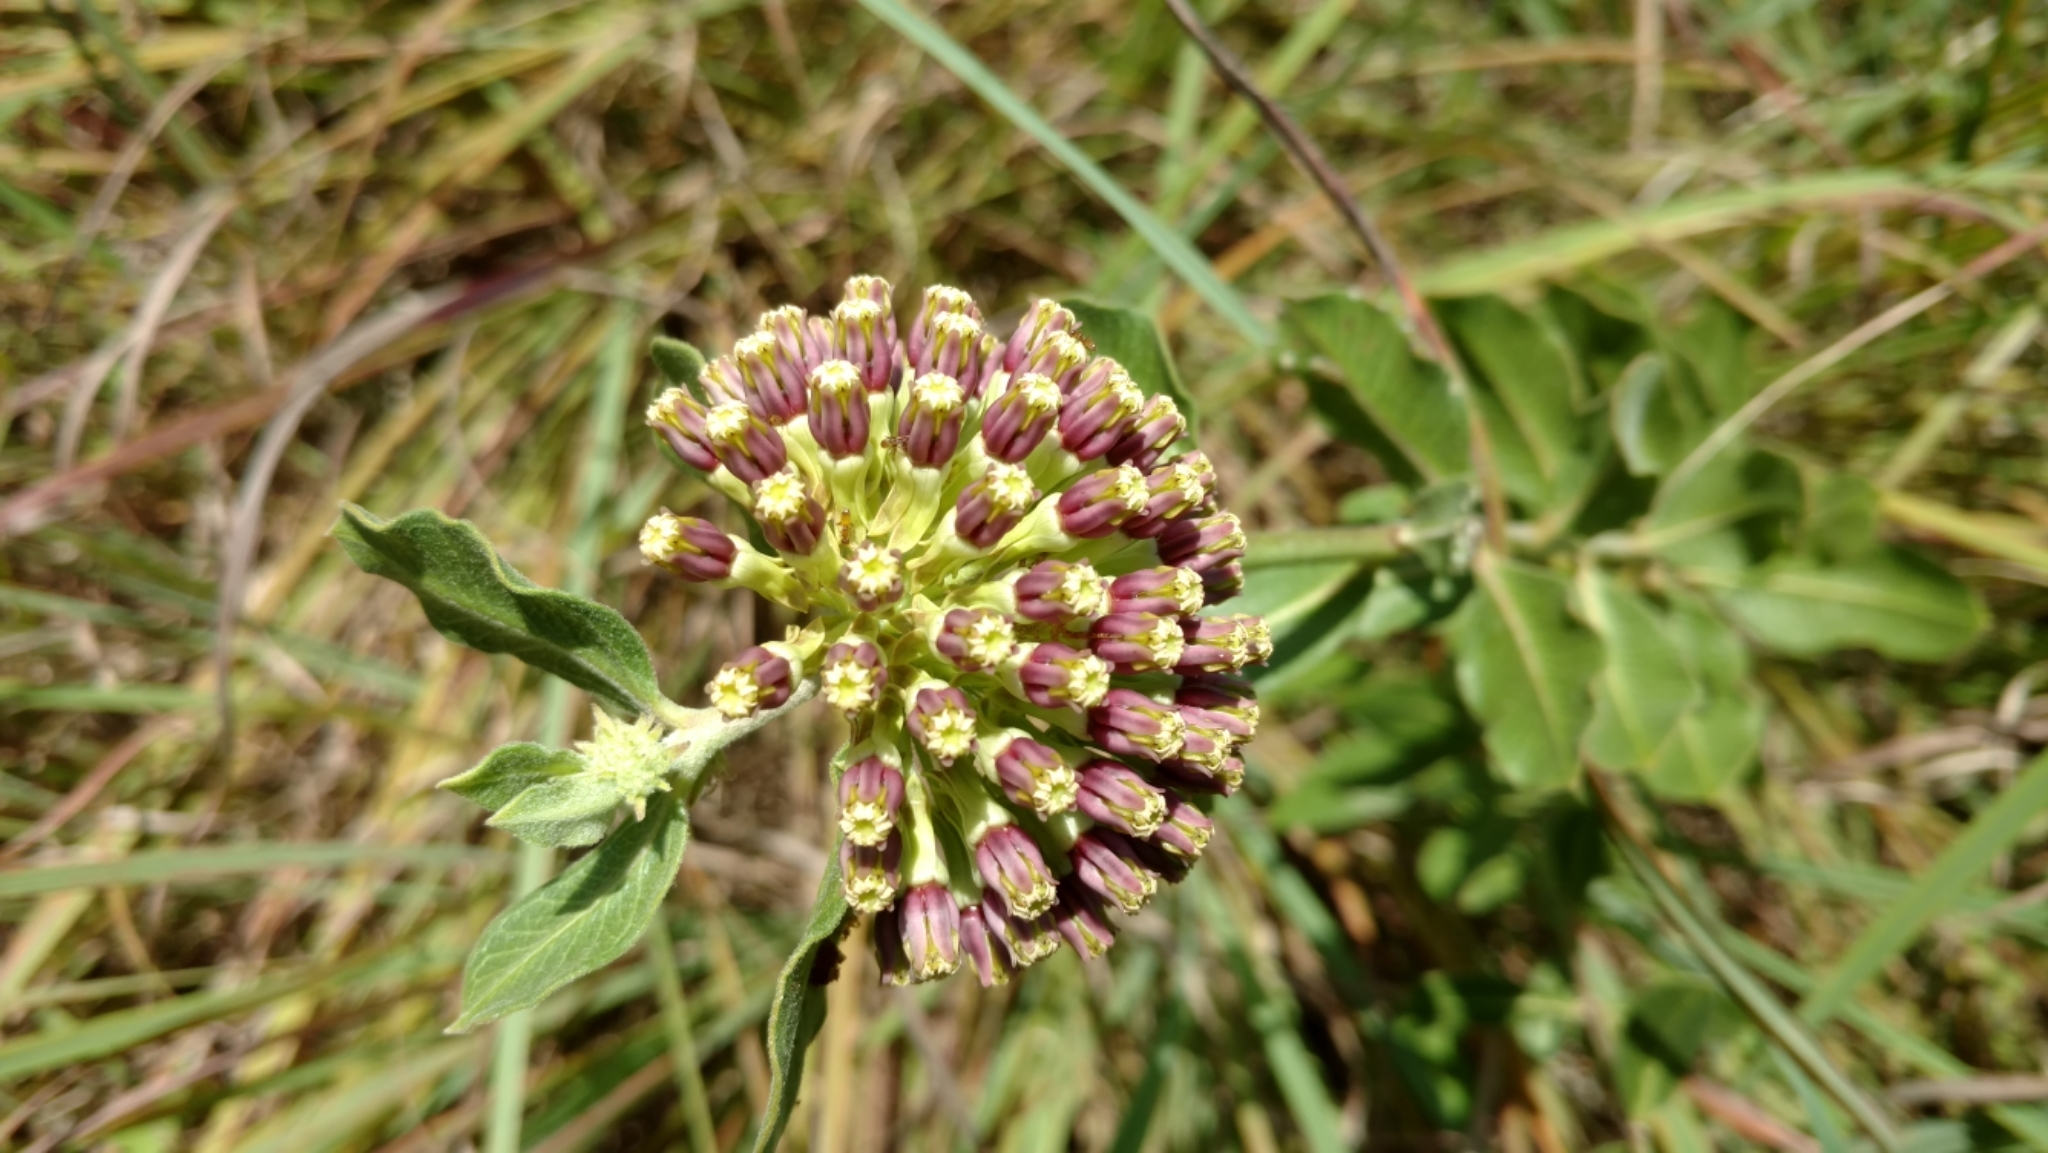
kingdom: Plantae
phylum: Tracheophyta
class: Magnoliopsida
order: Gentianales
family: Apocynaceae
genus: Asclepias
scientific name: Asclepias viridiflora
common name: Green comet milkweed
